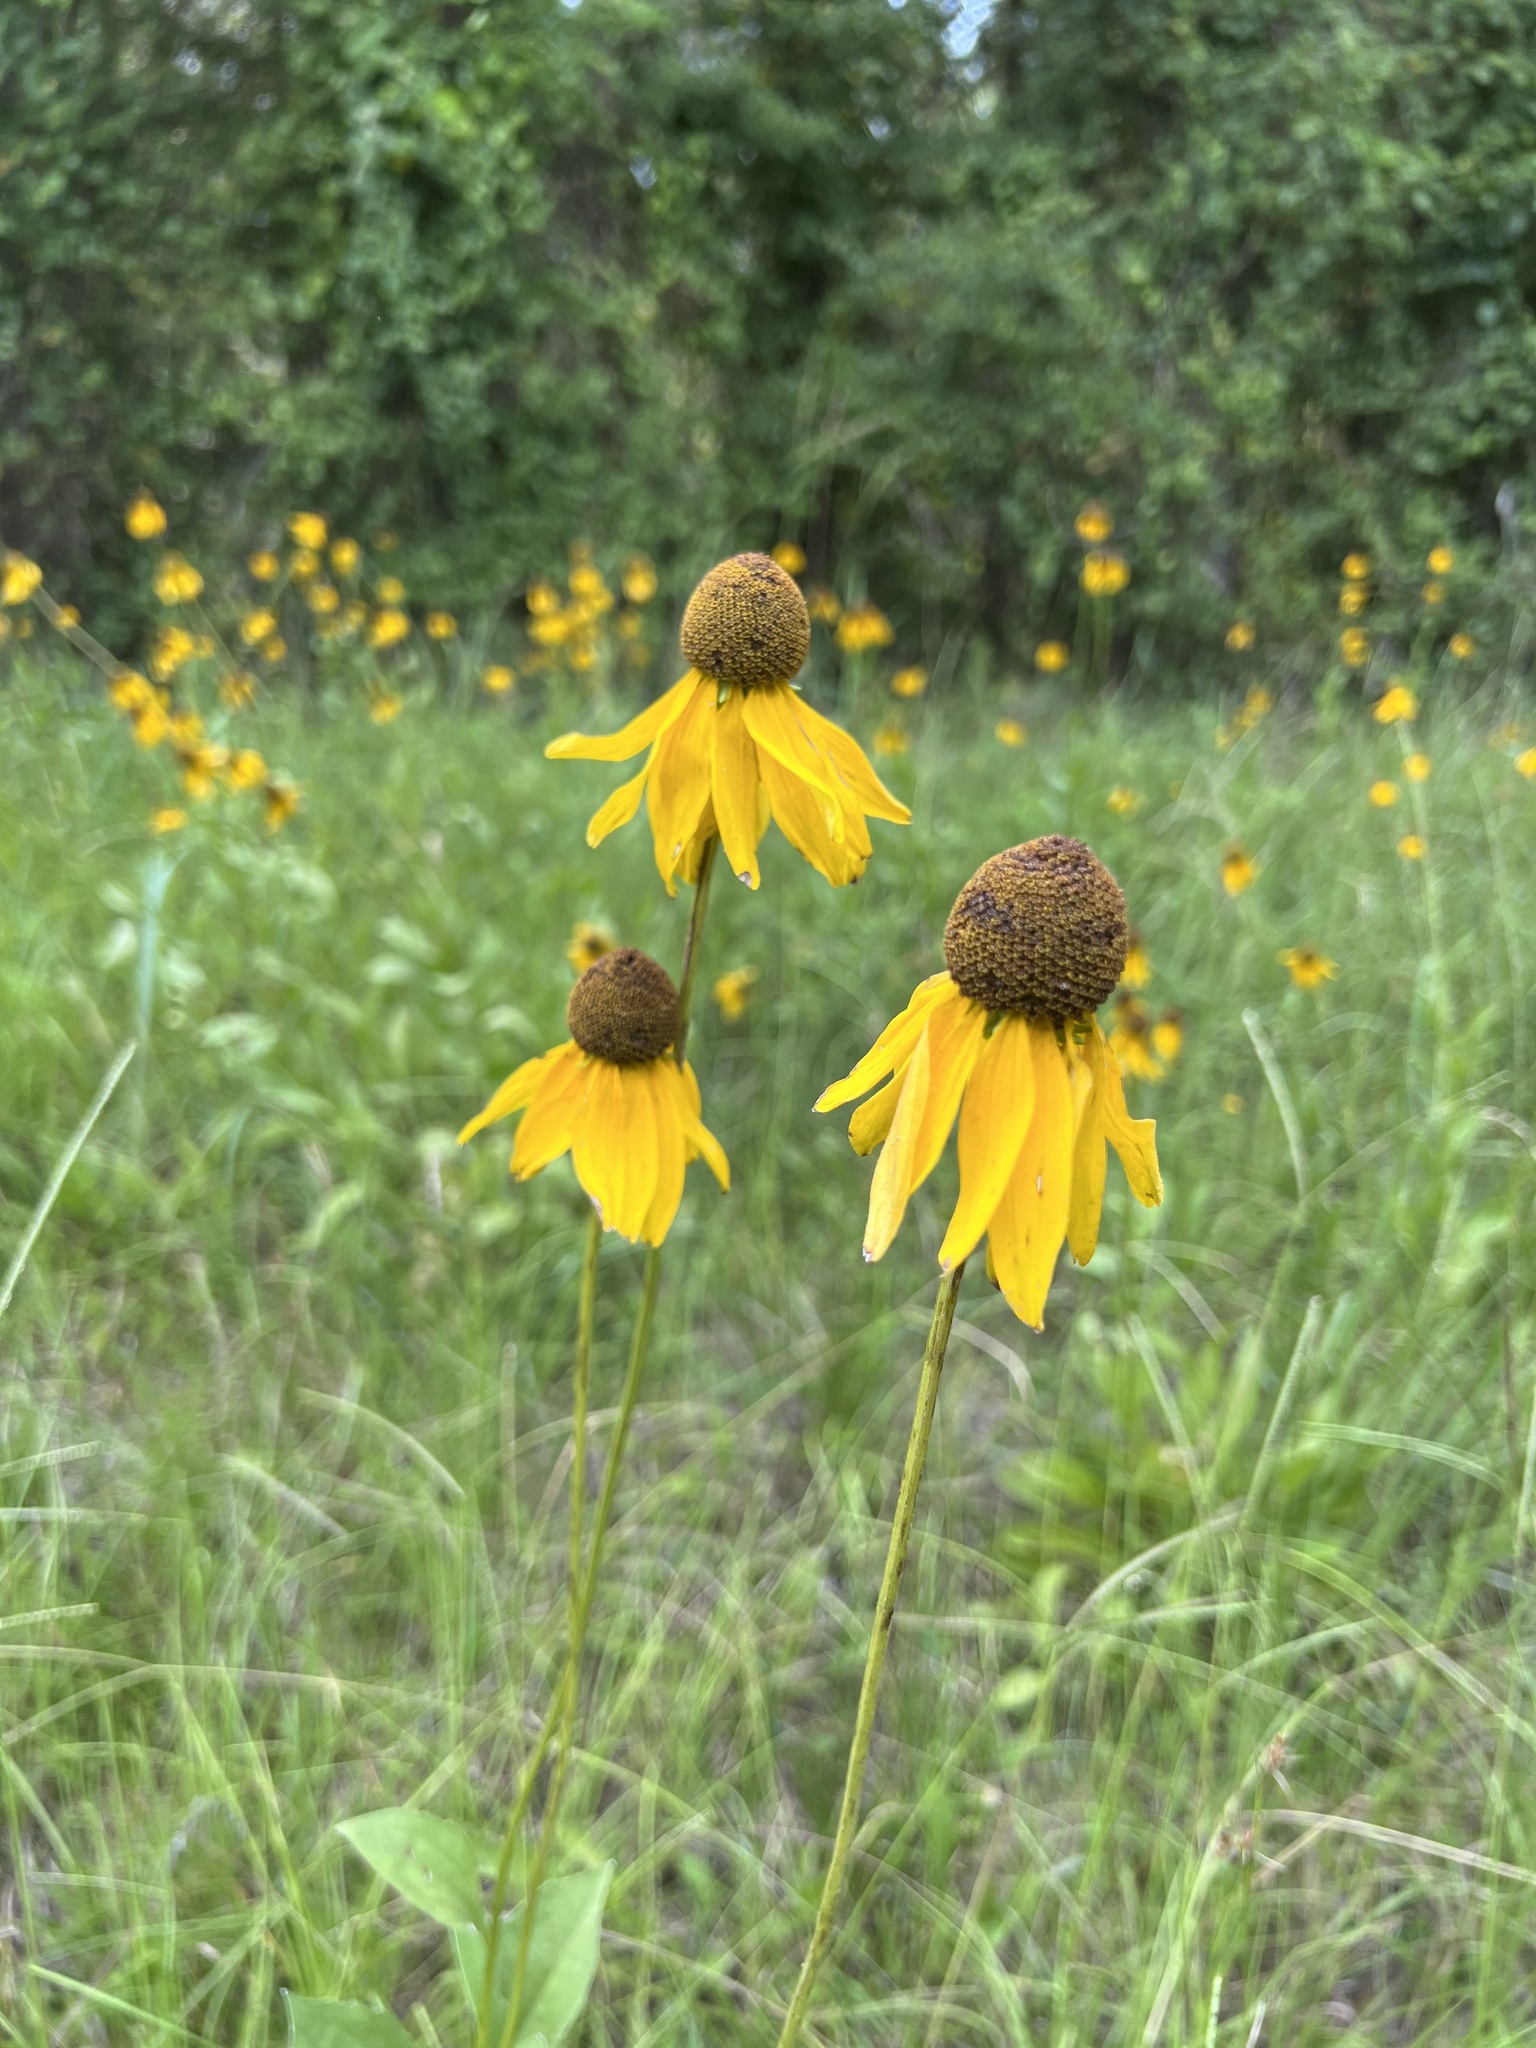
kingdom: Plantae
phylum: Tracheophyta
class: Magnoliopsida
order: Asterales
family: Asteraceae
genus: Rudbeckia
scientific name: Rudbeckia grandiflora
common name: Large-flowered coneflower
